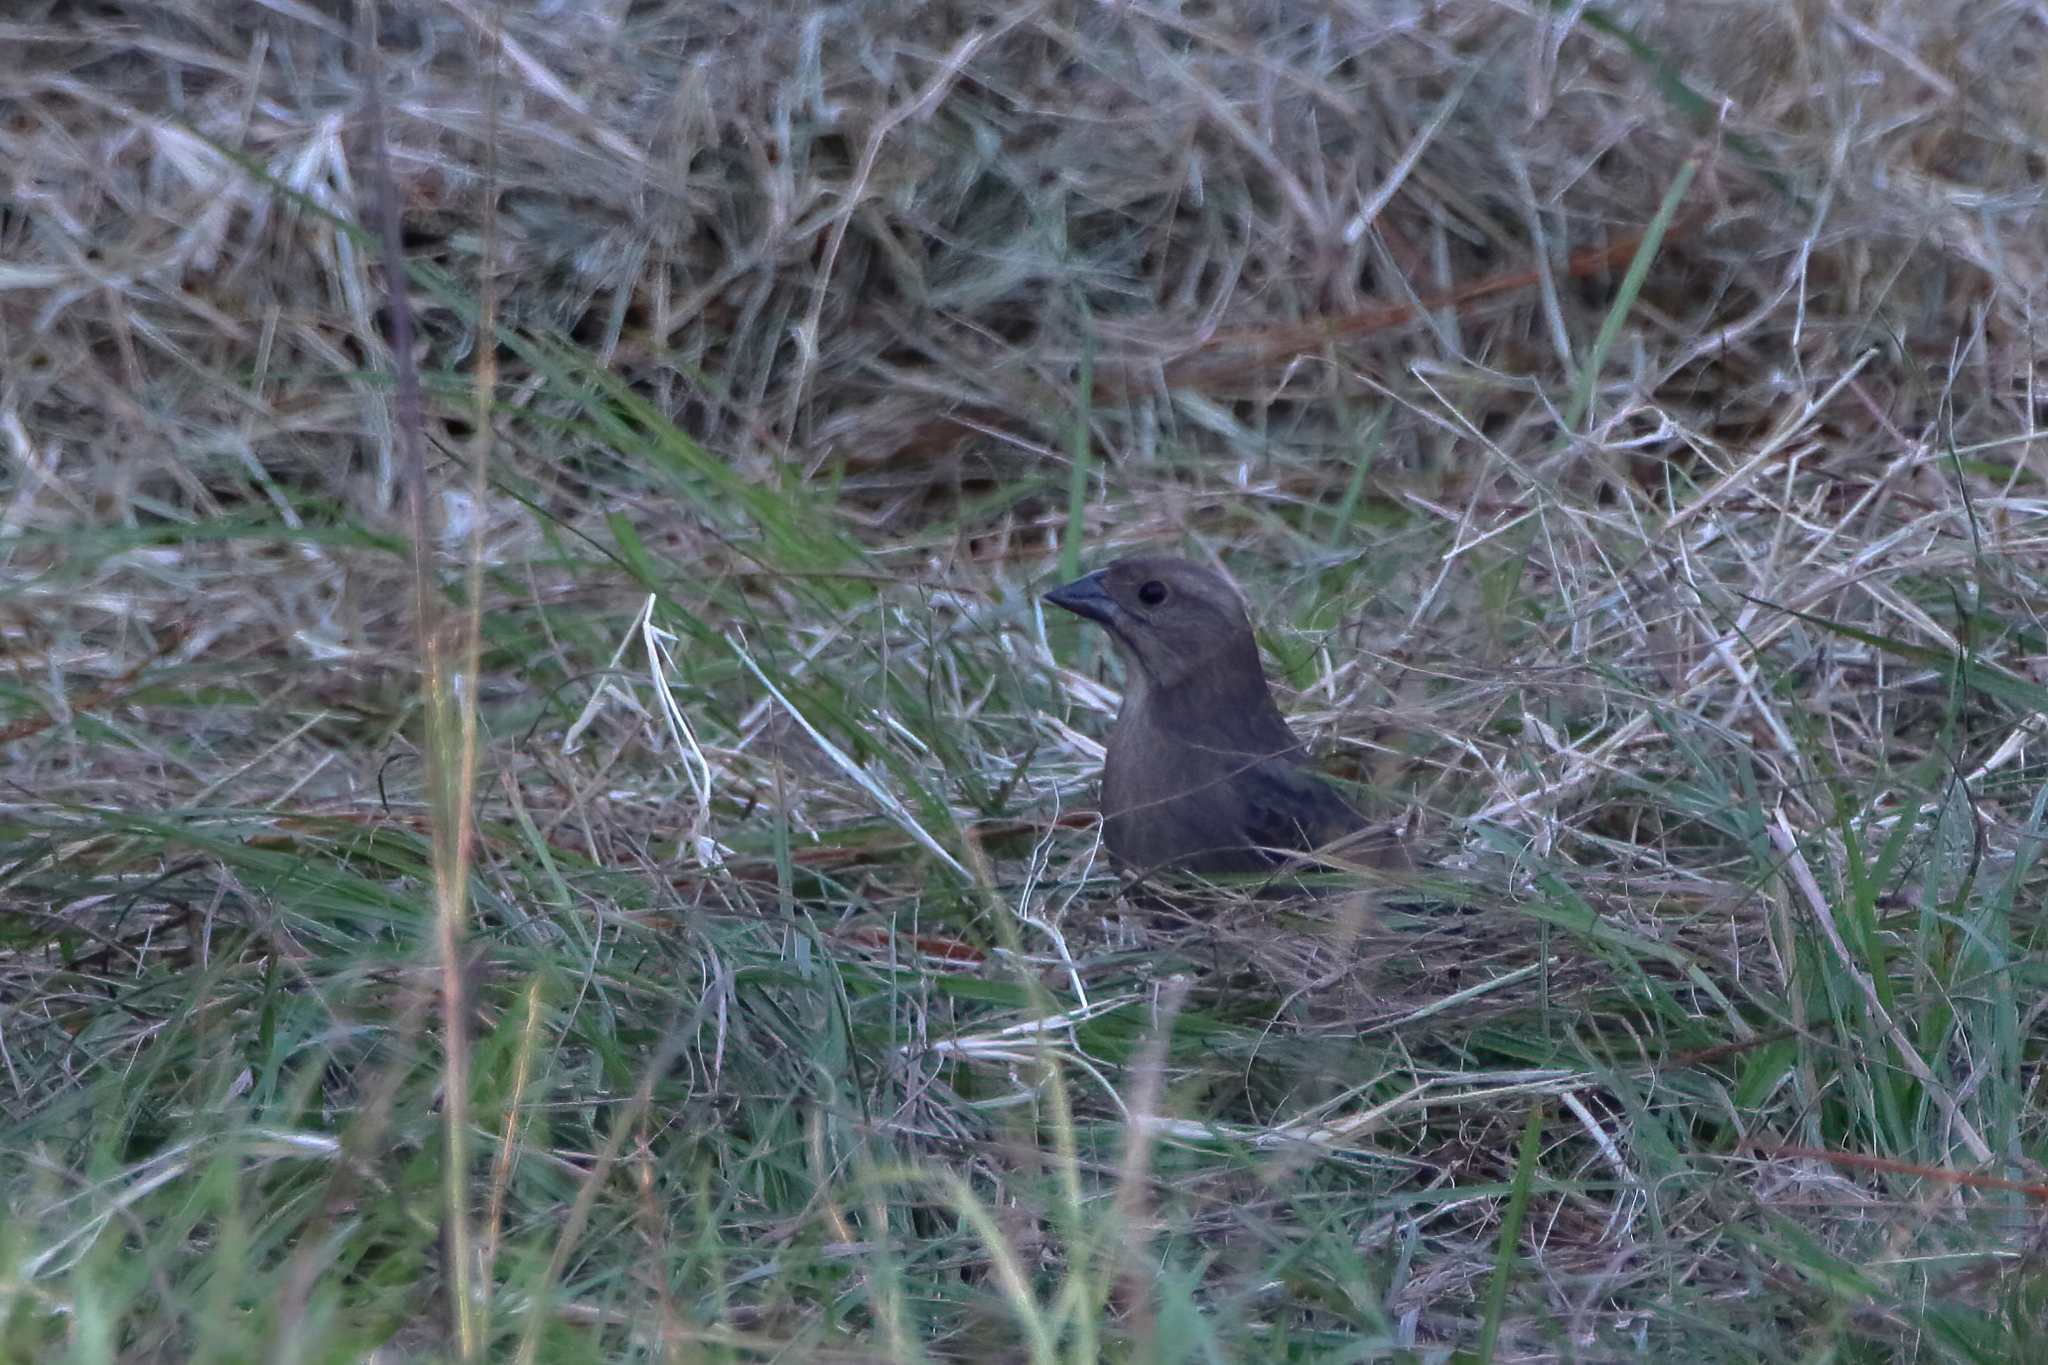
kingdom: Animalia
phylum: Chordata
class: Aves
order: Passeriformes
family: Icteridae
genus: Molothrus
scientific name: Molothrus ater
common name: Brown-headed cowbird
